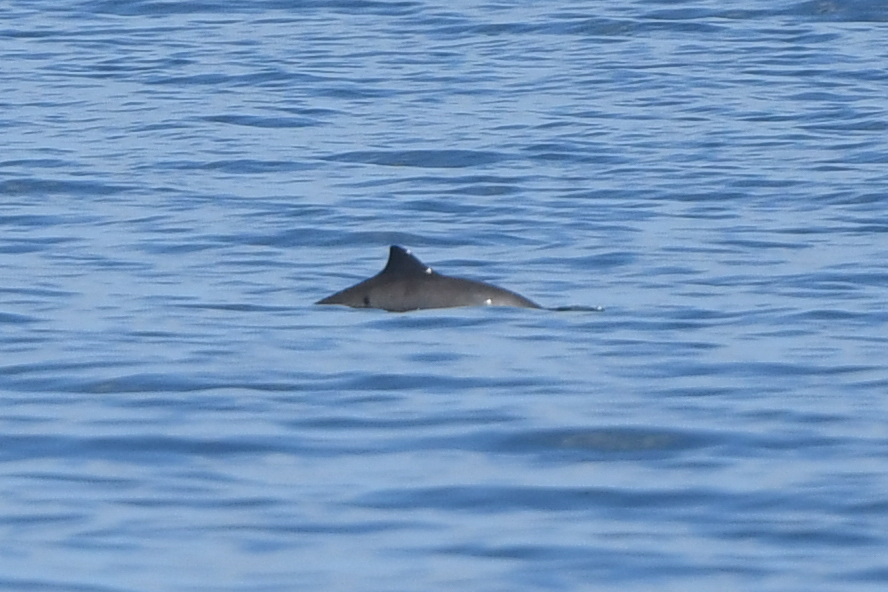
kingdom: Animalia
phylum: Chordata
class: Mammalia
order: Cetacea
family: Phocoenidae
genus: Phocoena
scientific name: Phocoena phocoena
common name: Harbor porpoise
